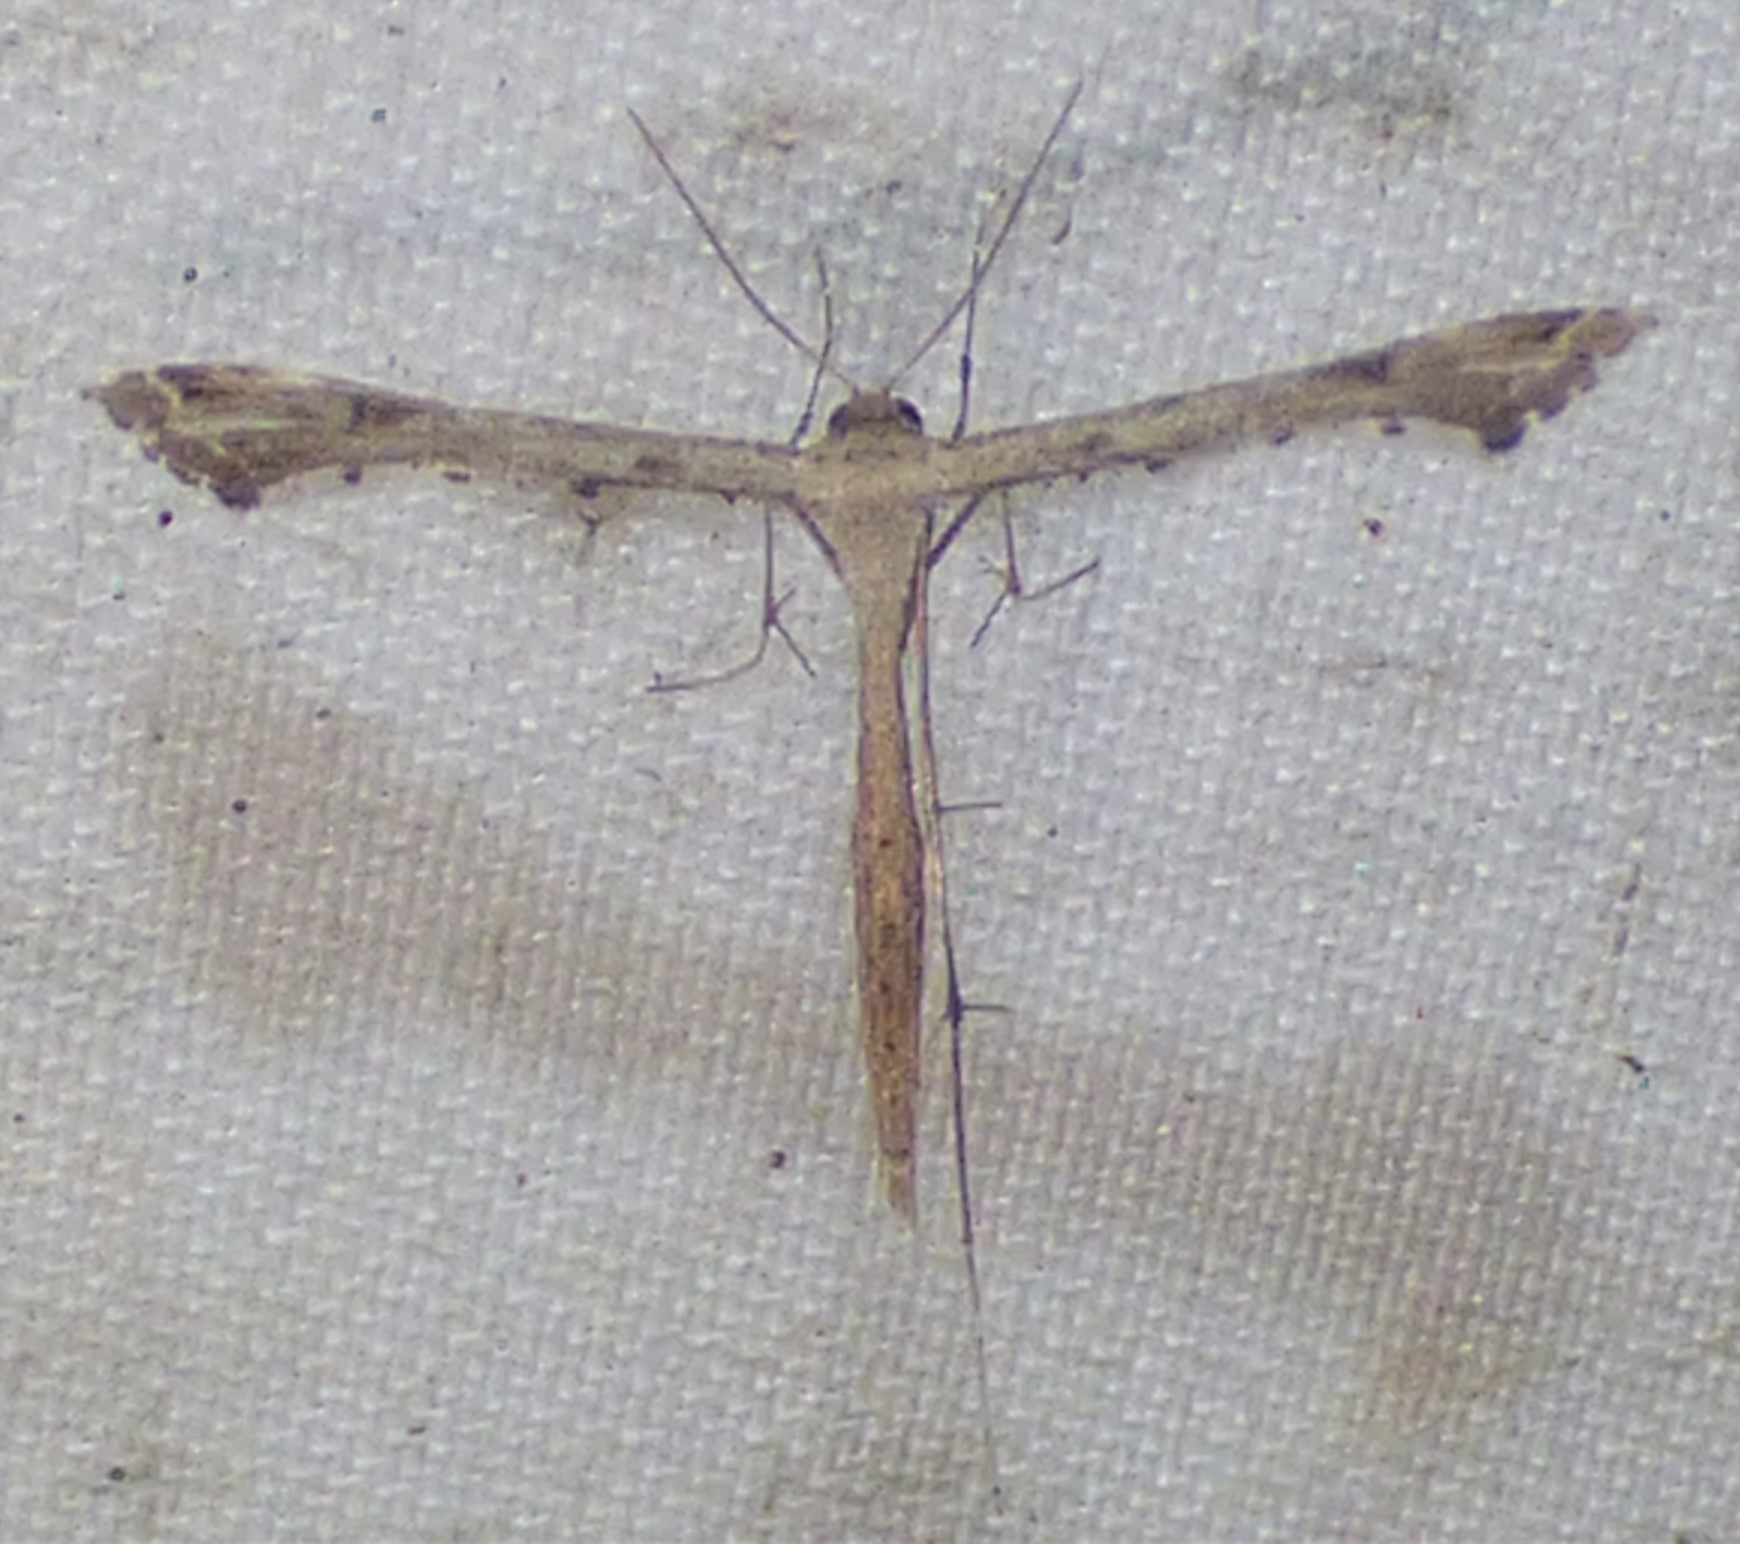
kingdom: Animalia
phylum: Arthropoda
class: Insecta
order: Lepidoptera
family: Pterophoridae
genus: Stenoptilodes
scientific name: Stenoptilodes
